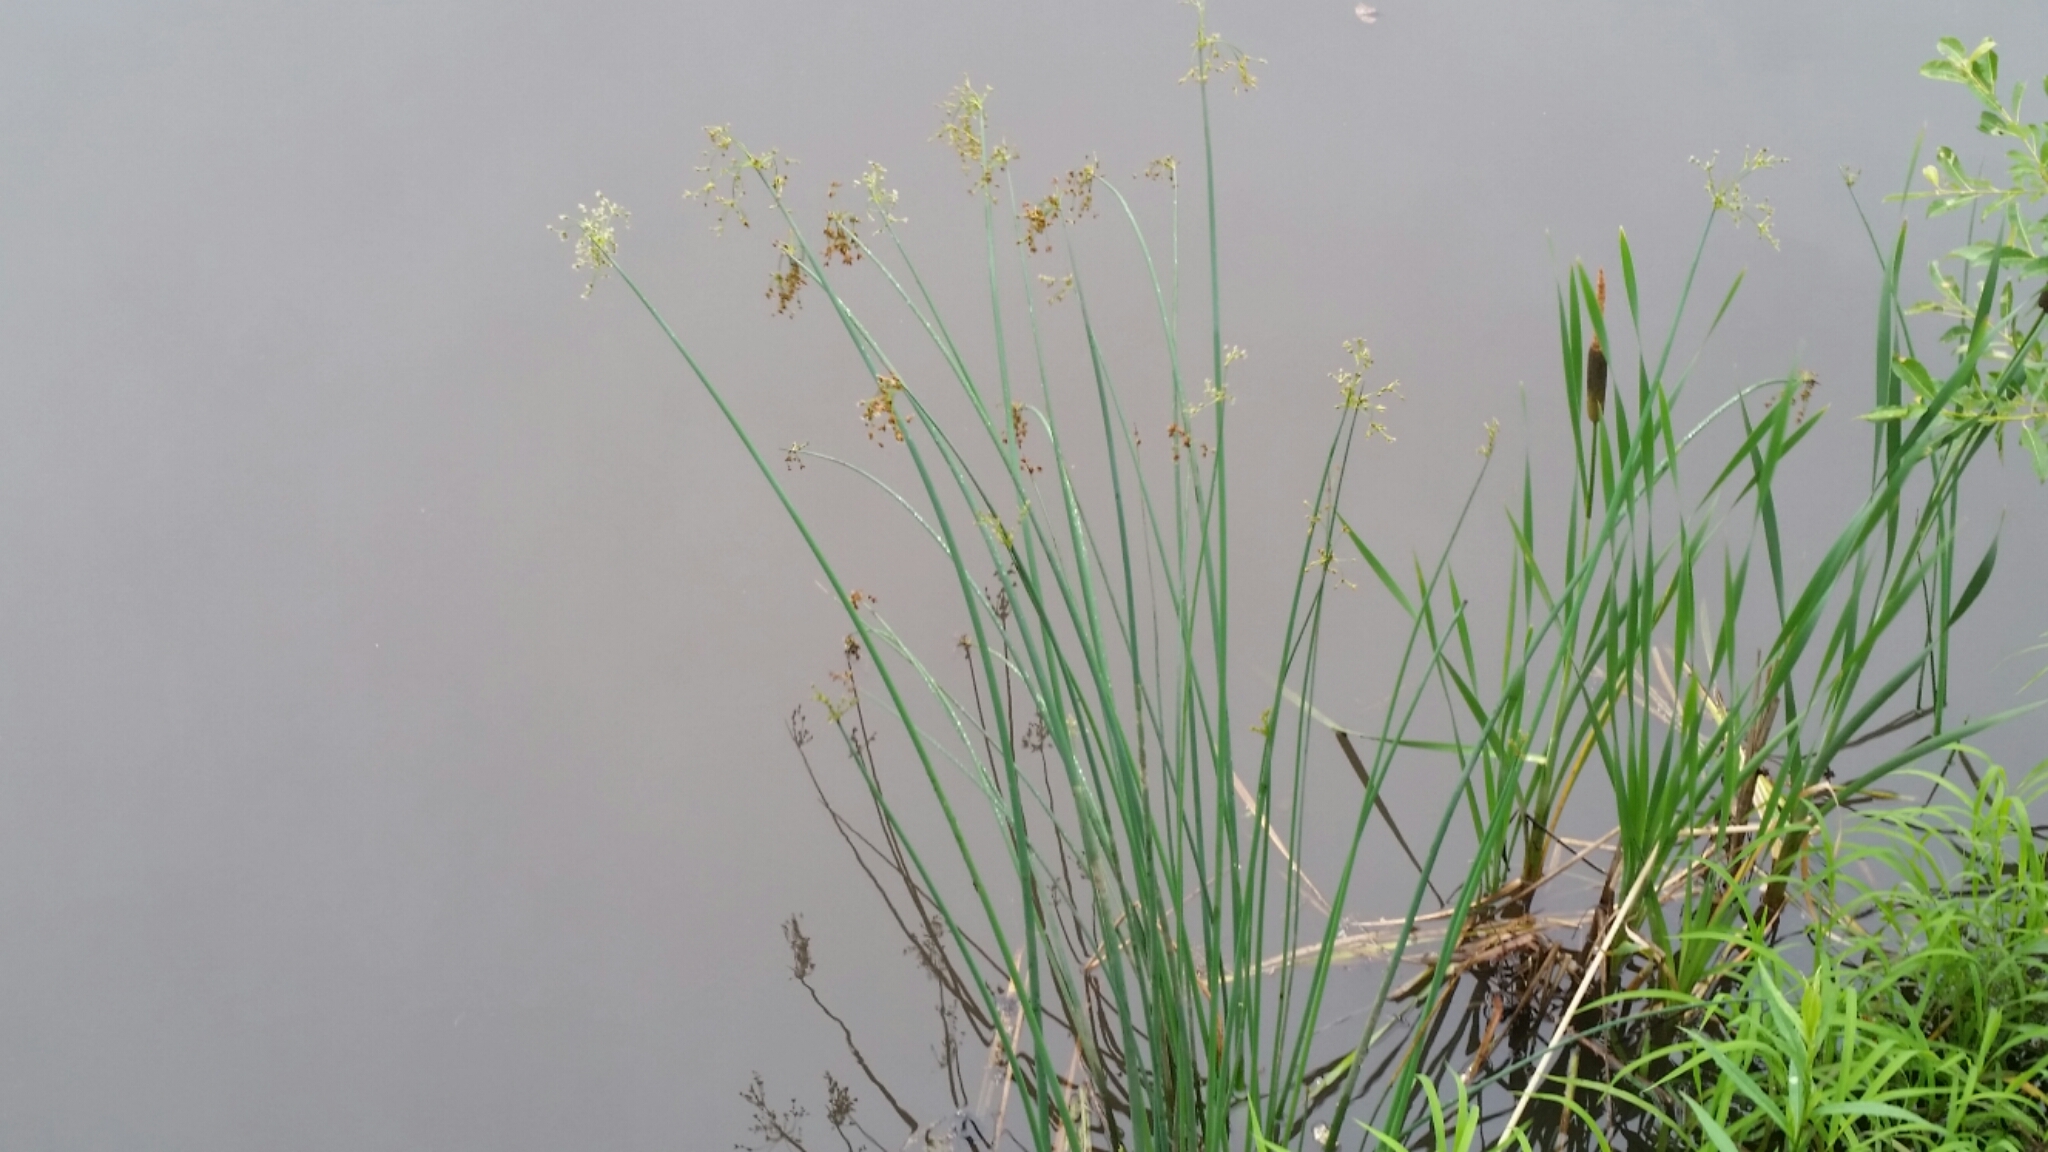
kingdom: Plantae
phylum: Tracheophyta
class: Liliopsida
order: Poales
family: Cyperaceae
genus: Schoenoplectus
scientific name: Schoenoplectus acutus
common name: Hardstem bulrush
